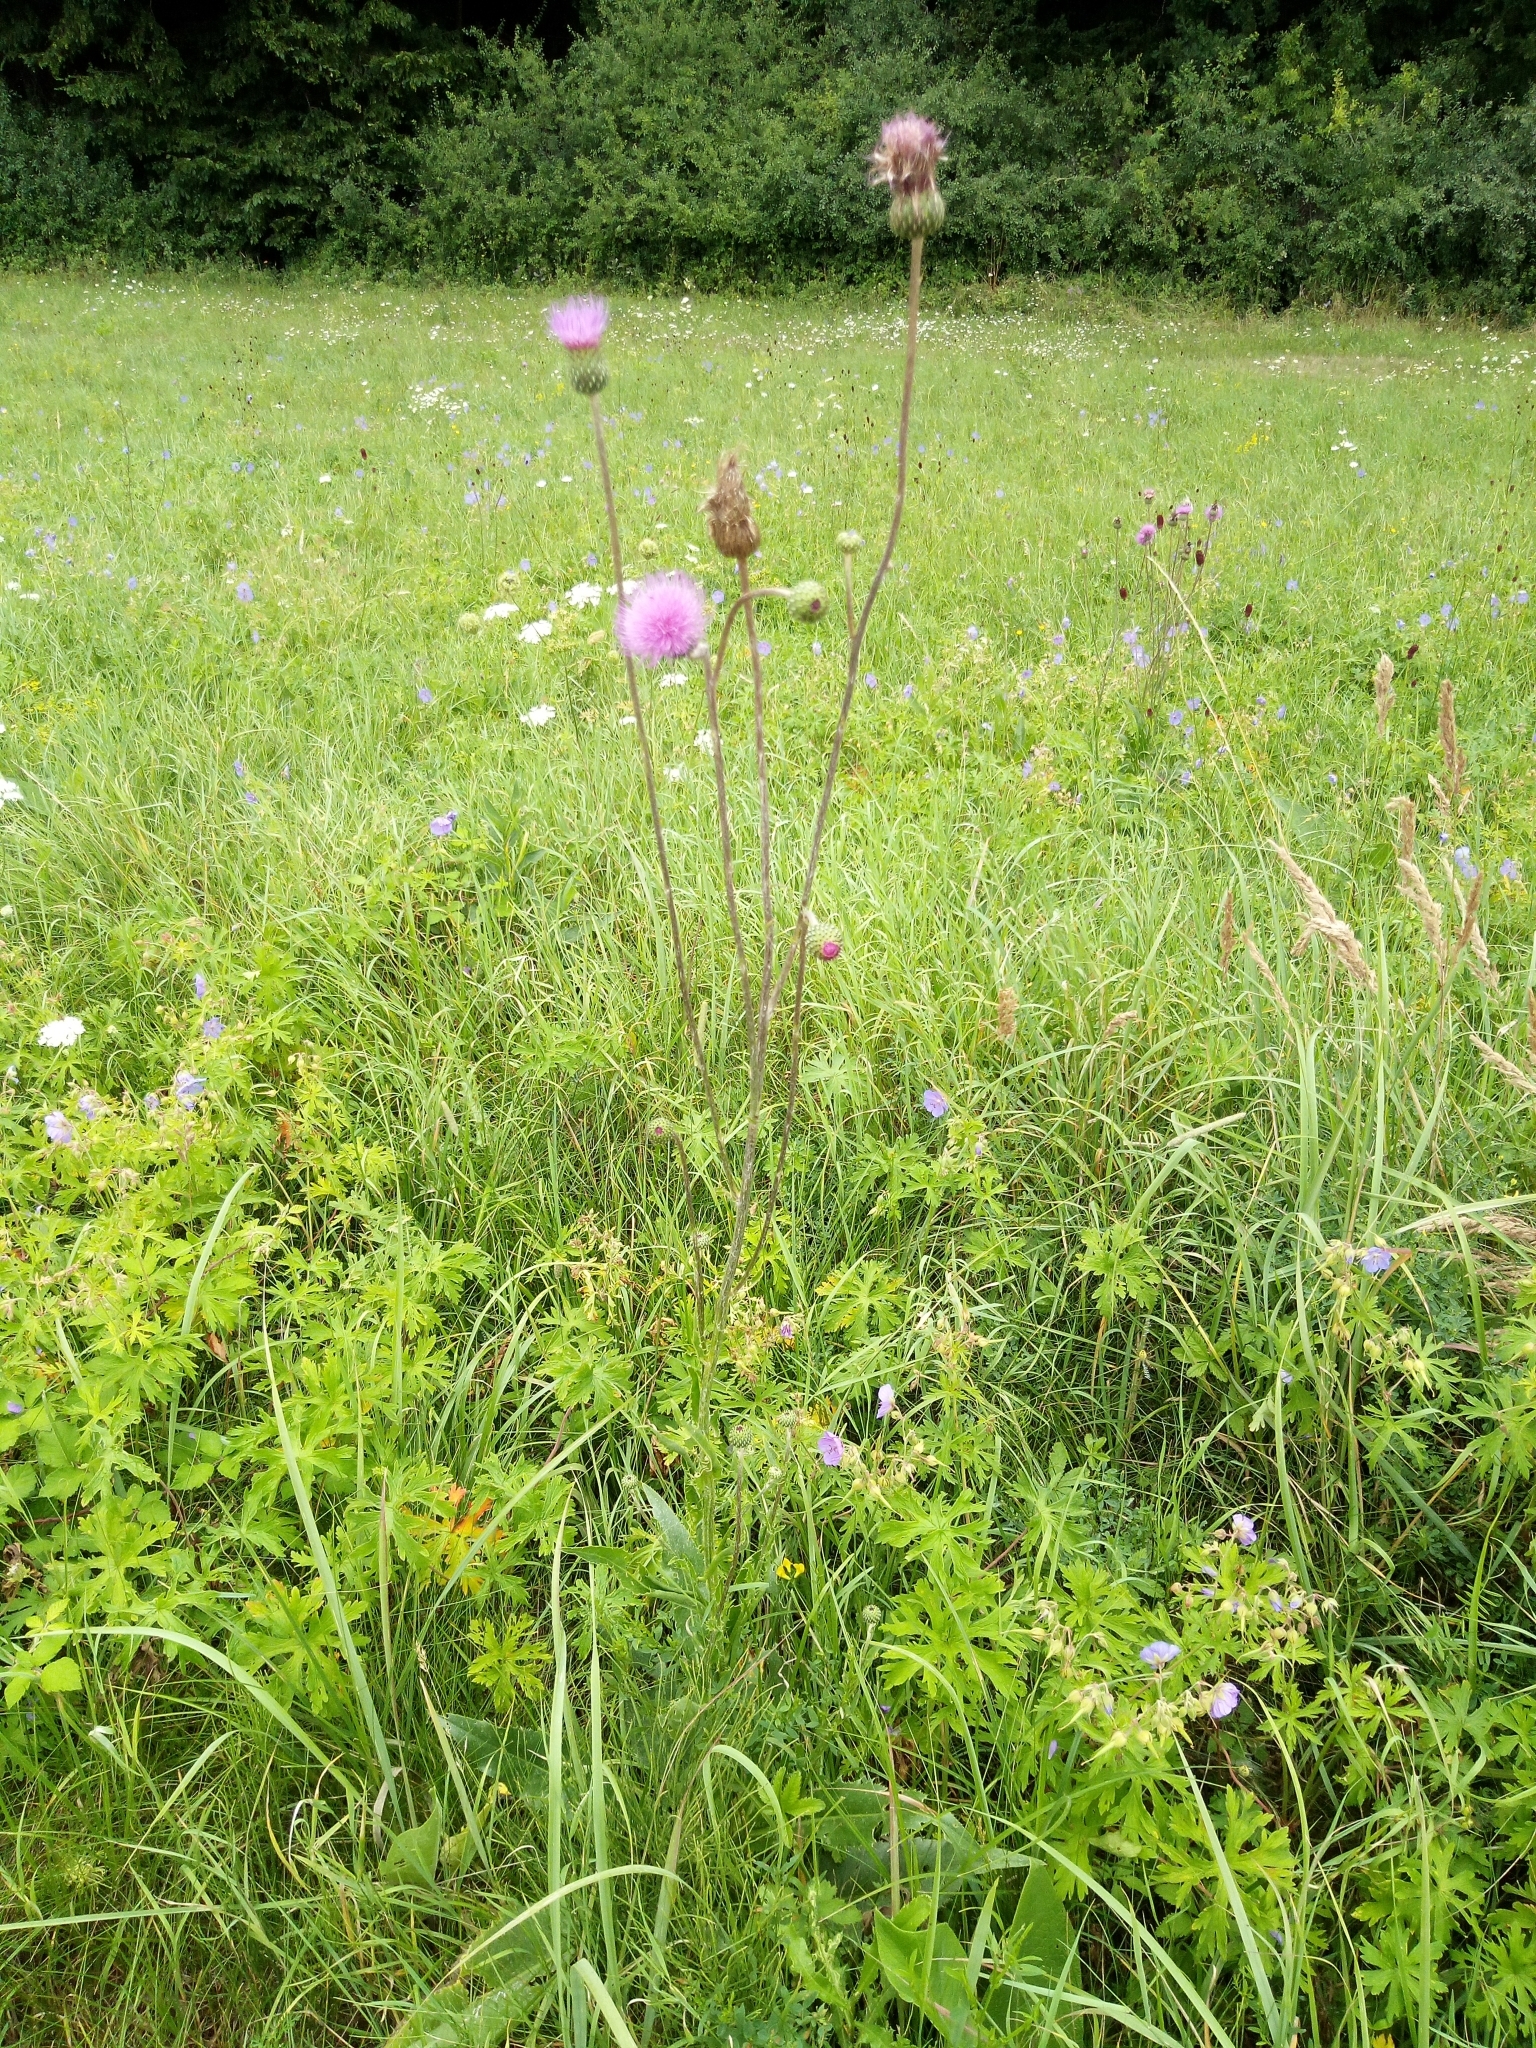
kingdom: Plantae
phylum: Tracheophyta
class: Magnoliopsida
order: Asterales
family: Asteraceae
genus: Cirsium
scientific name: Cirsium canum
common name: Queen anne's thistle
